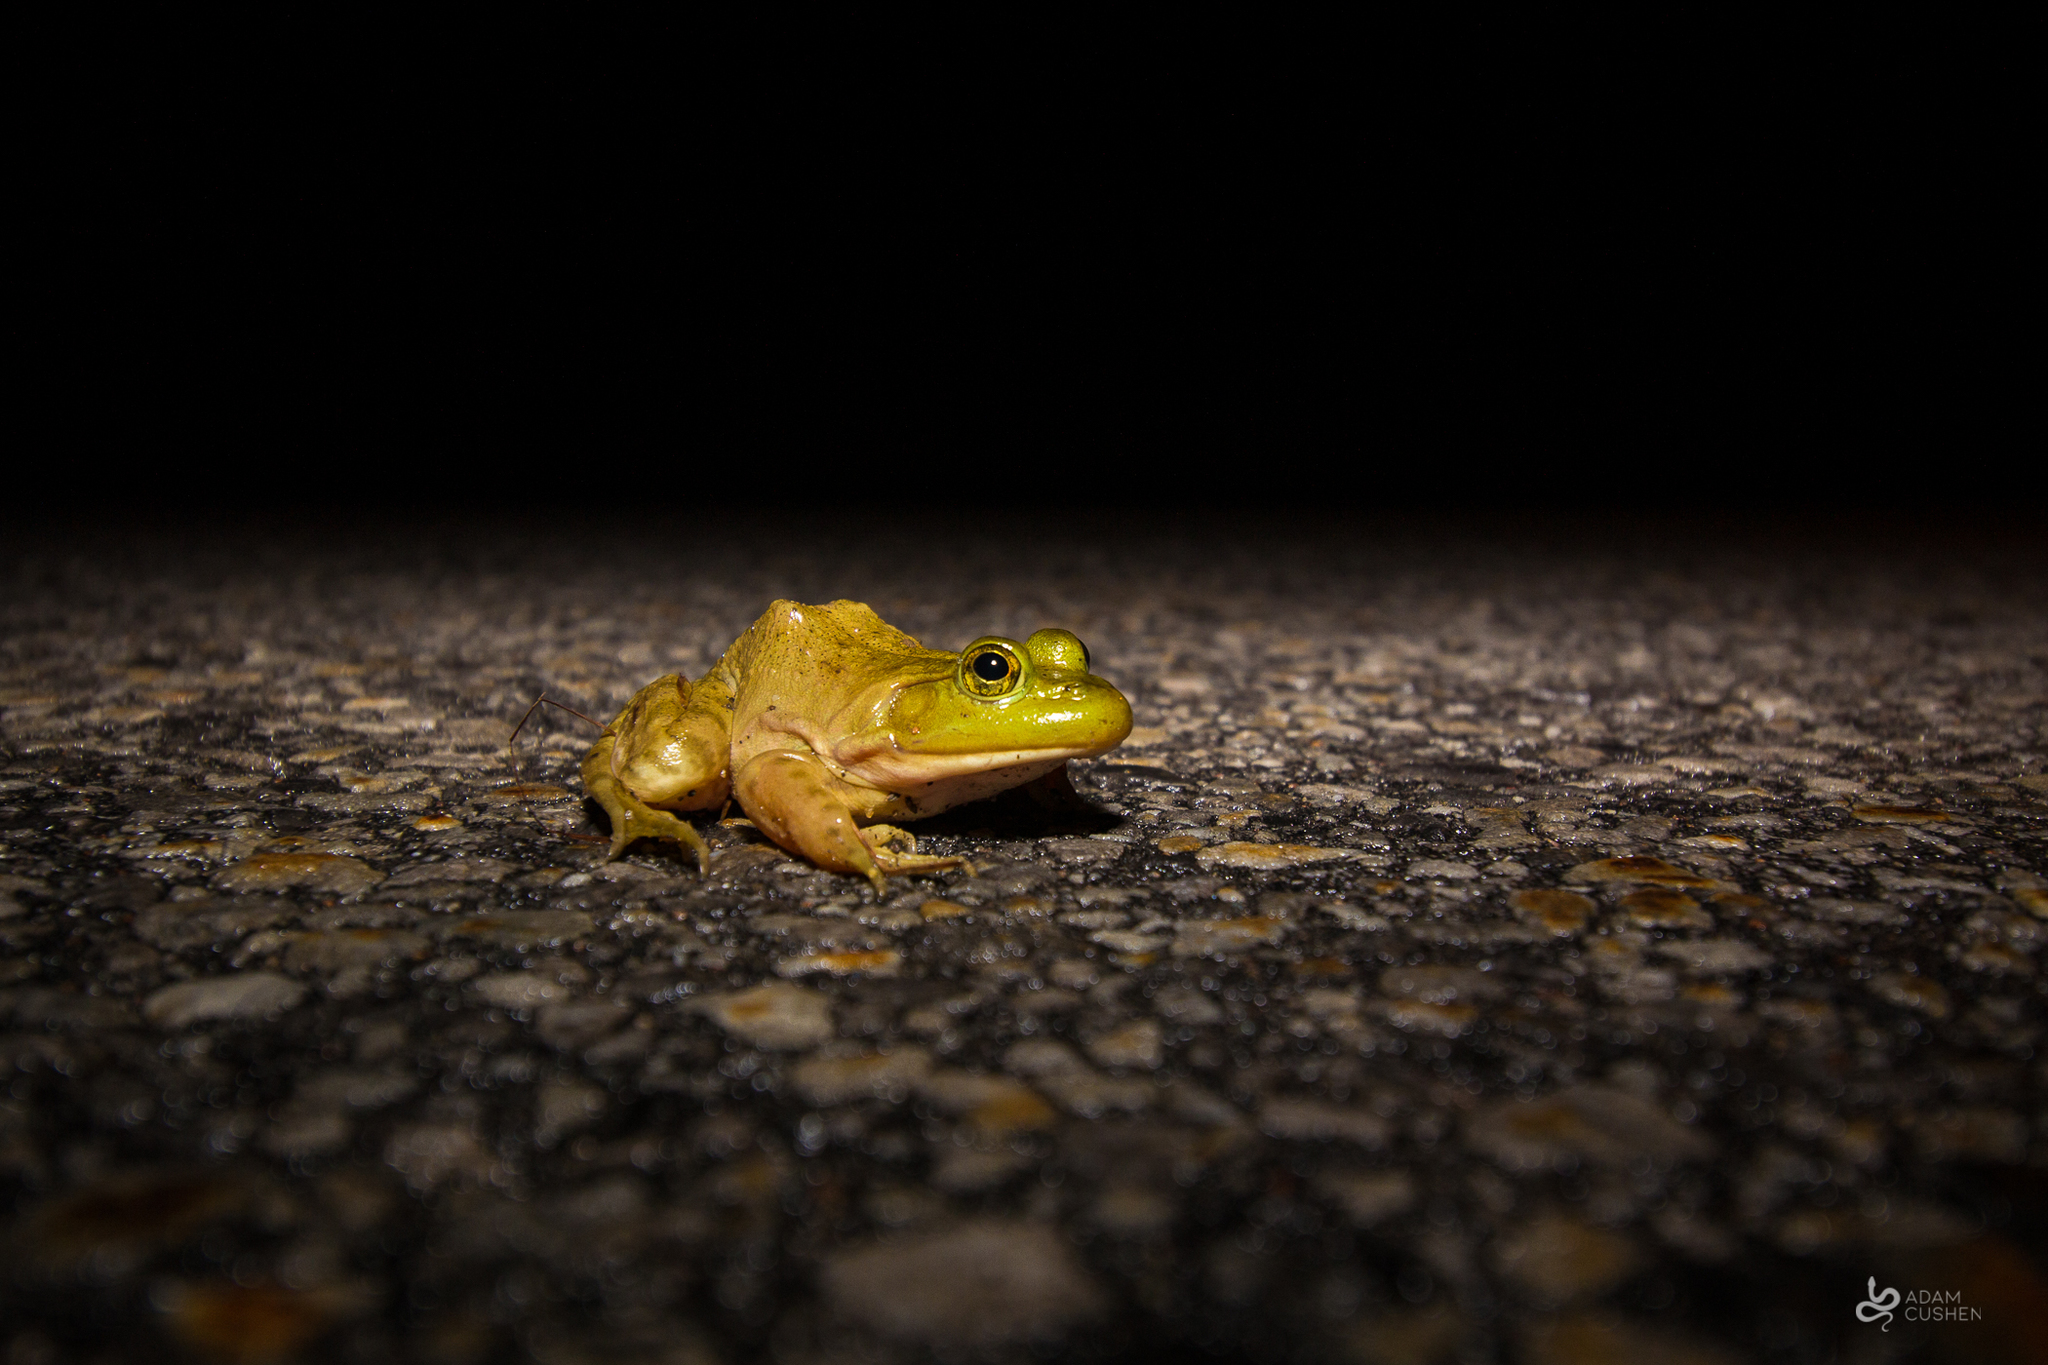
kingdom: Animalia
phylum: Chordata
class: Amphibia
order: Anura
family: Ranidae
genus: Lithobates
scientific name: Lithobates catesbeianus
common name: American bullfrog
